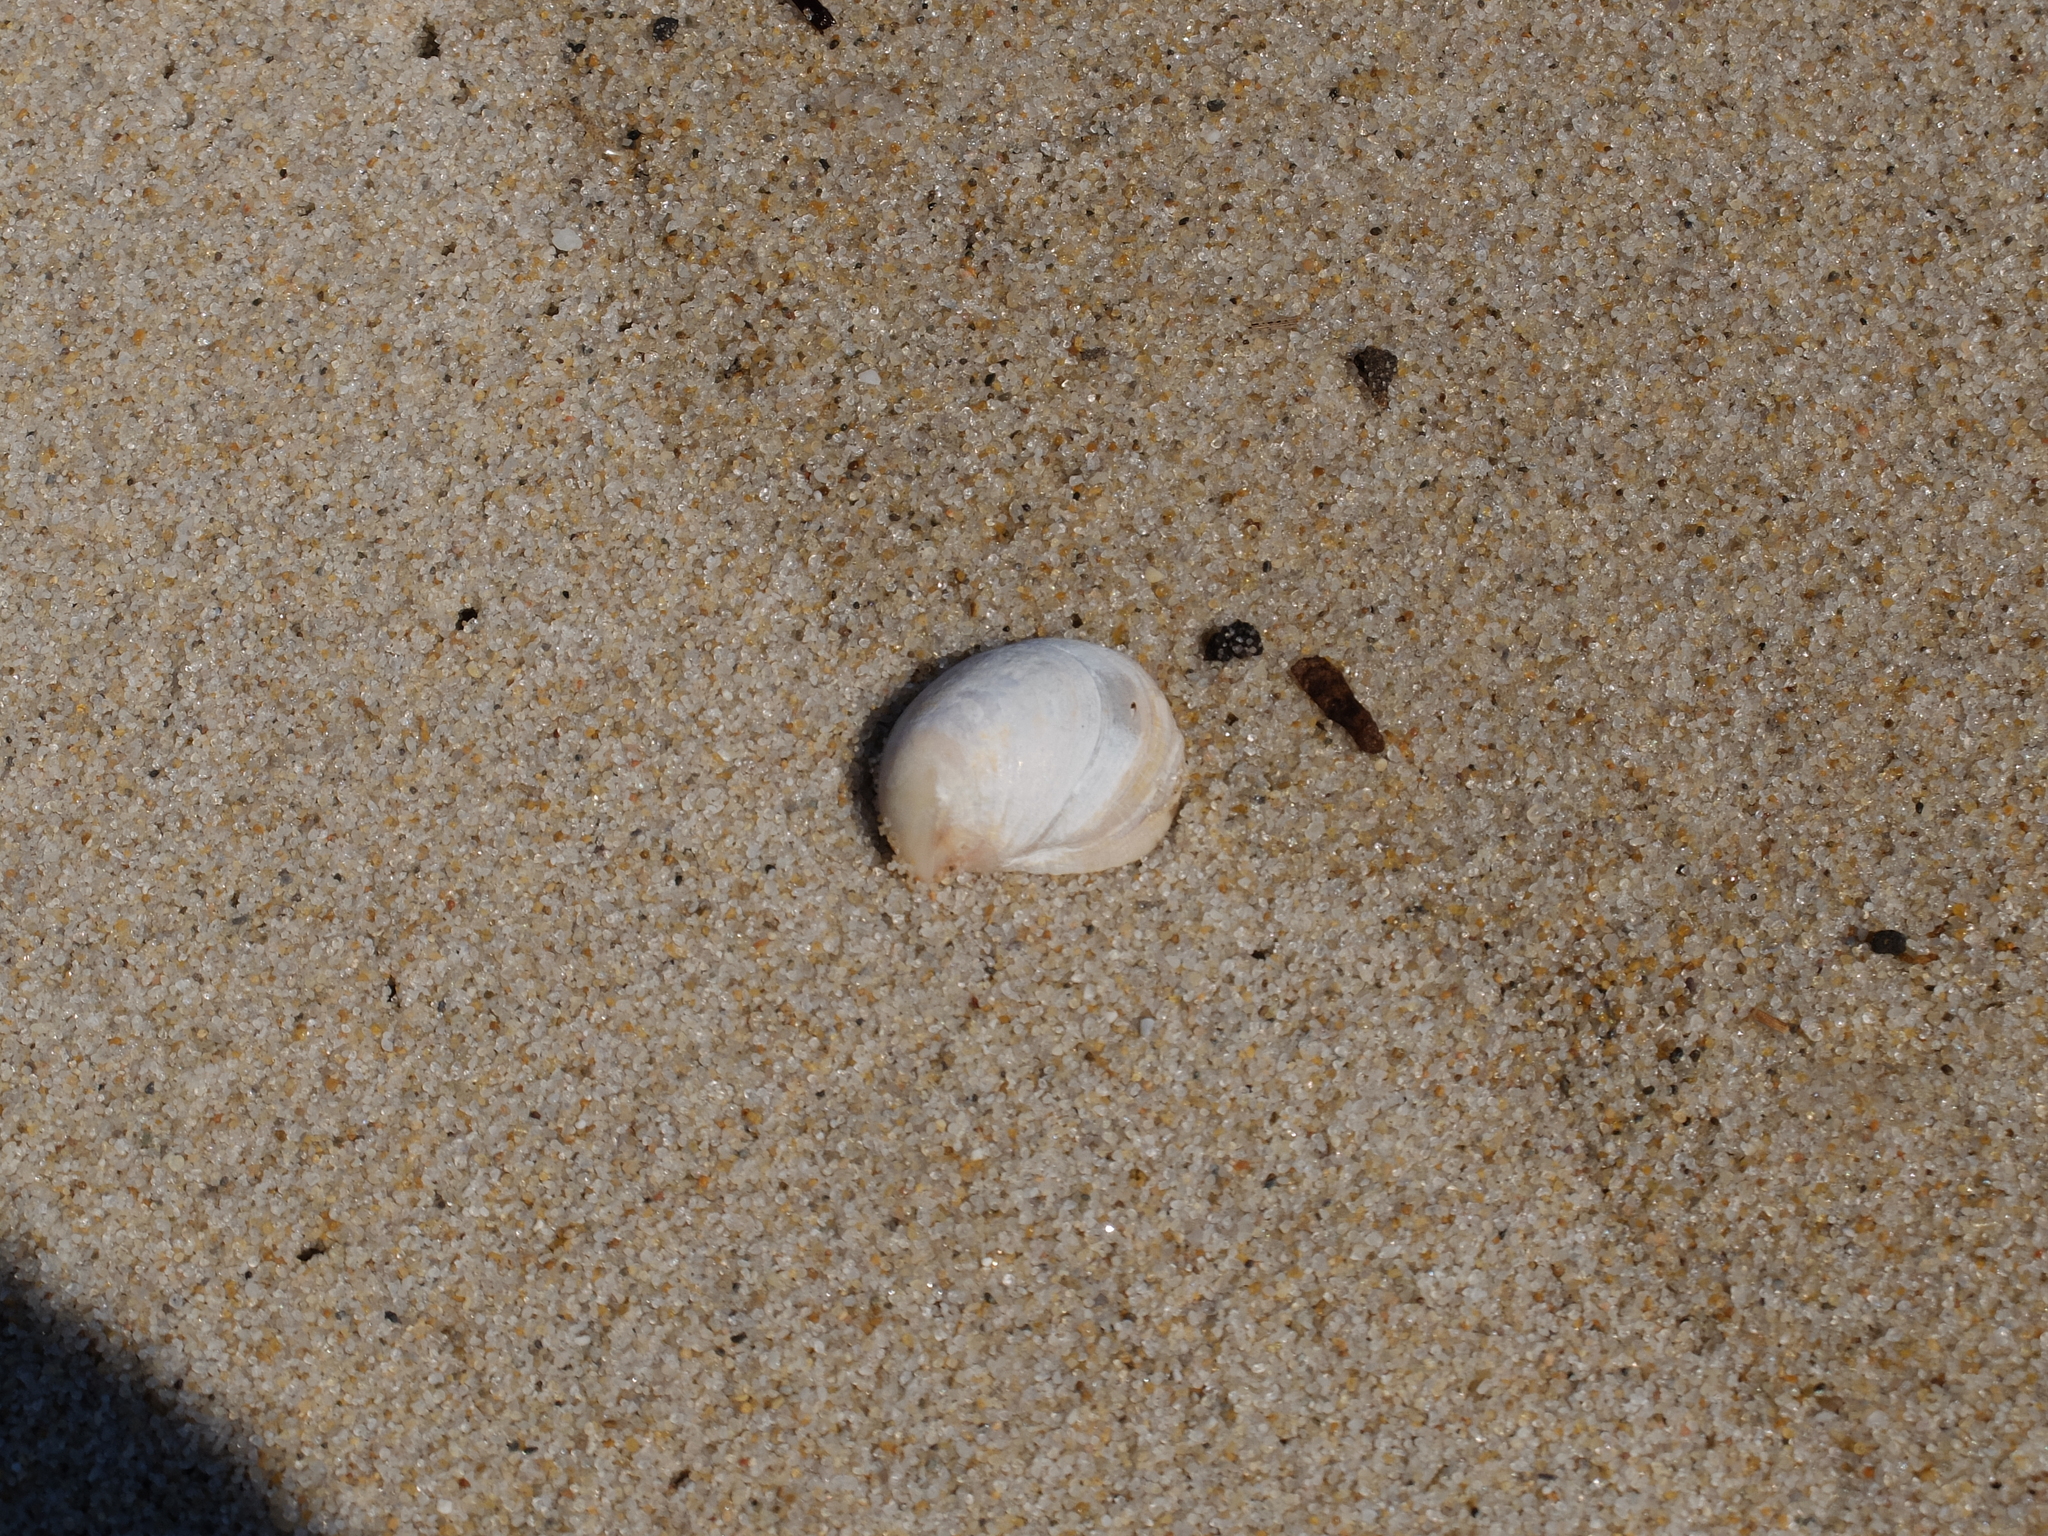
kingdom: Animalia
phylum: Mollusca
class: Gastropoda
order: Littorinimorpha
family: Calyptraeidae
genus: Crepidula
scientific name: Crepidula fornicata
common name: Slipper limpet
